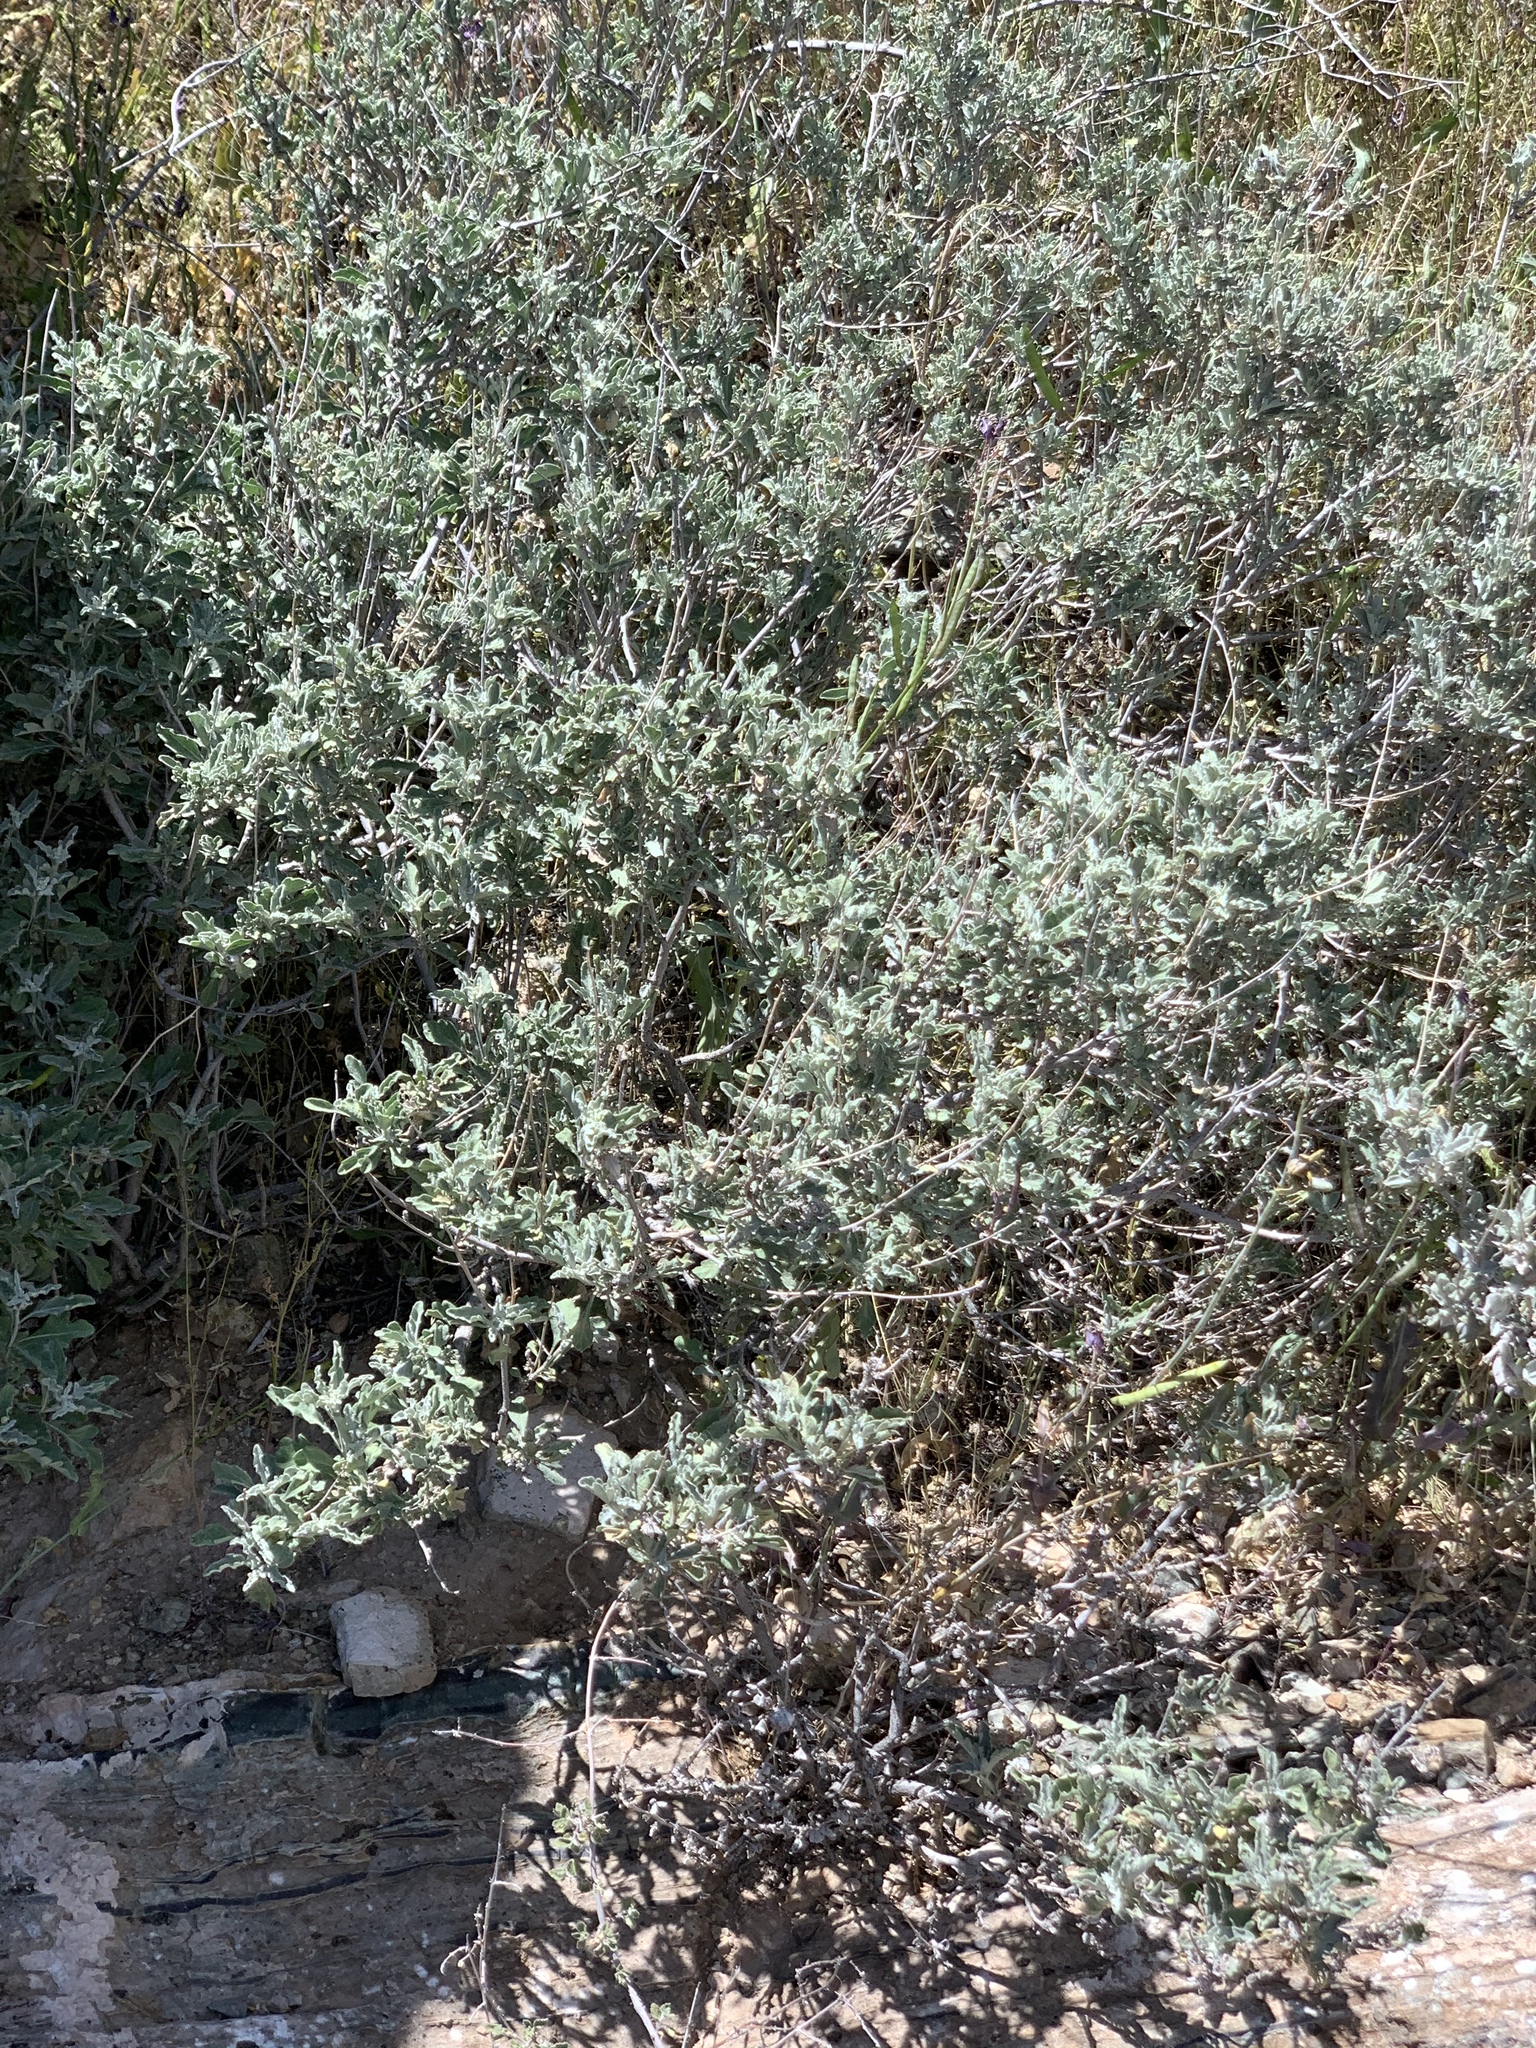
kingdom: Plantae
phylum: Tracheophyta
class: Magnoliopsida
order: Asterales
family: Asteraceae
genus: Parthenium
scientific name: Parthenium incanum
